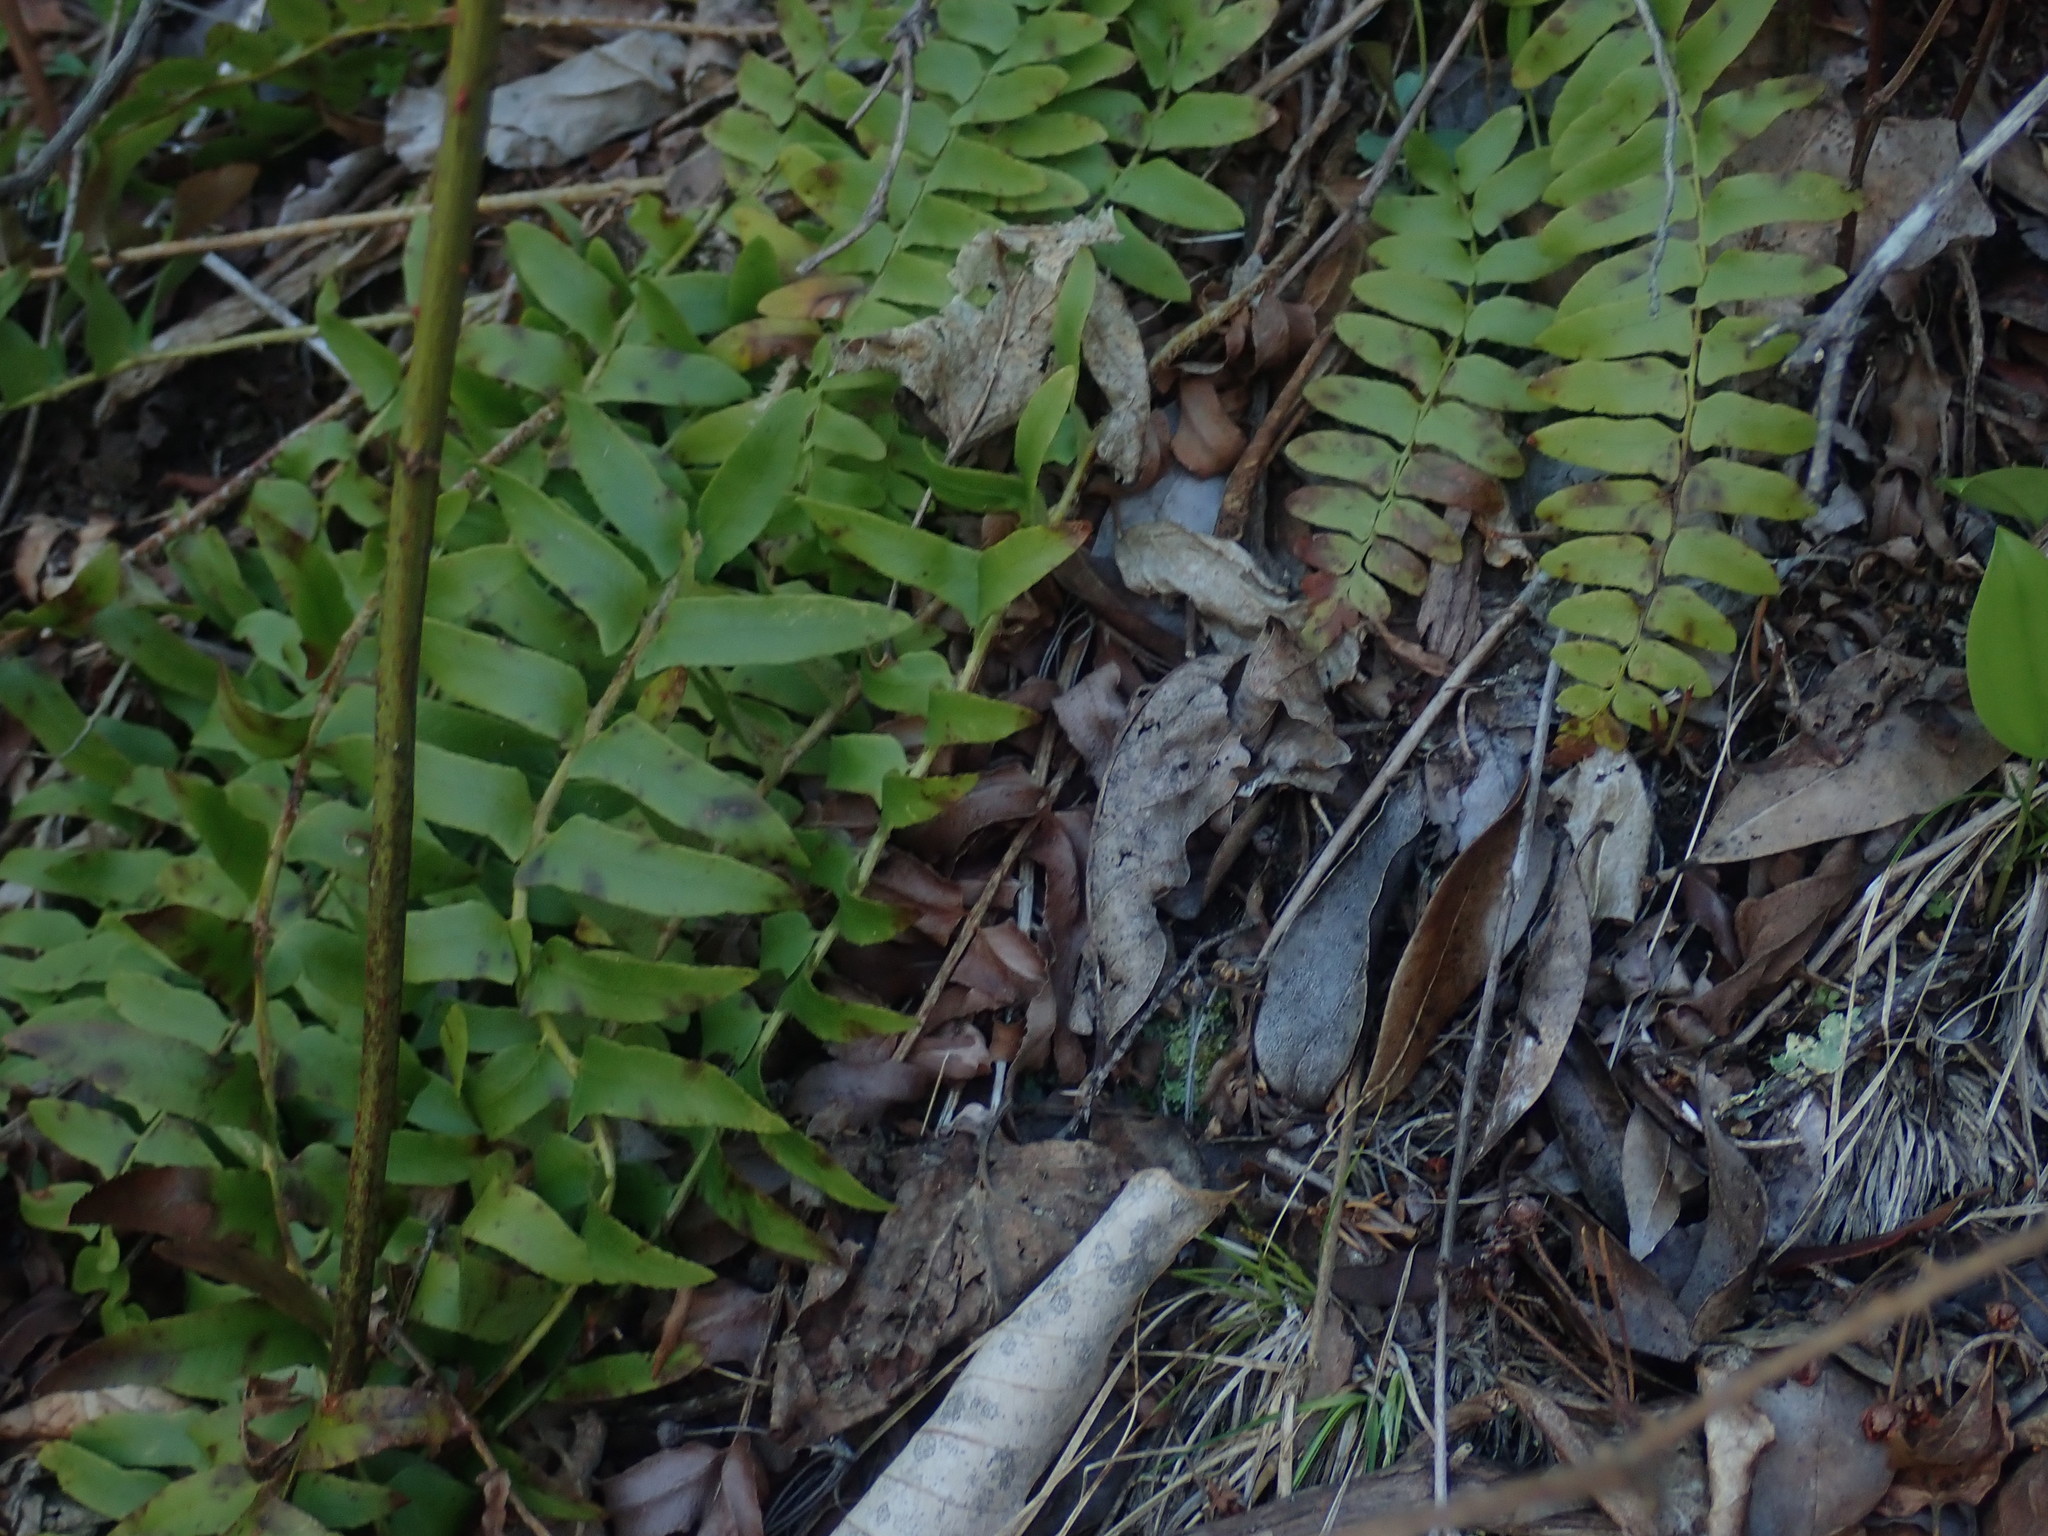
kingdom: Plantae
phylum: Tracheophyta
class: Polypodiopsida
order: Polypodiales
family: Dryopteridaceae
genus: Polystichum
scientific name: Polystichum acrostichoides
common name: Christmas fern
